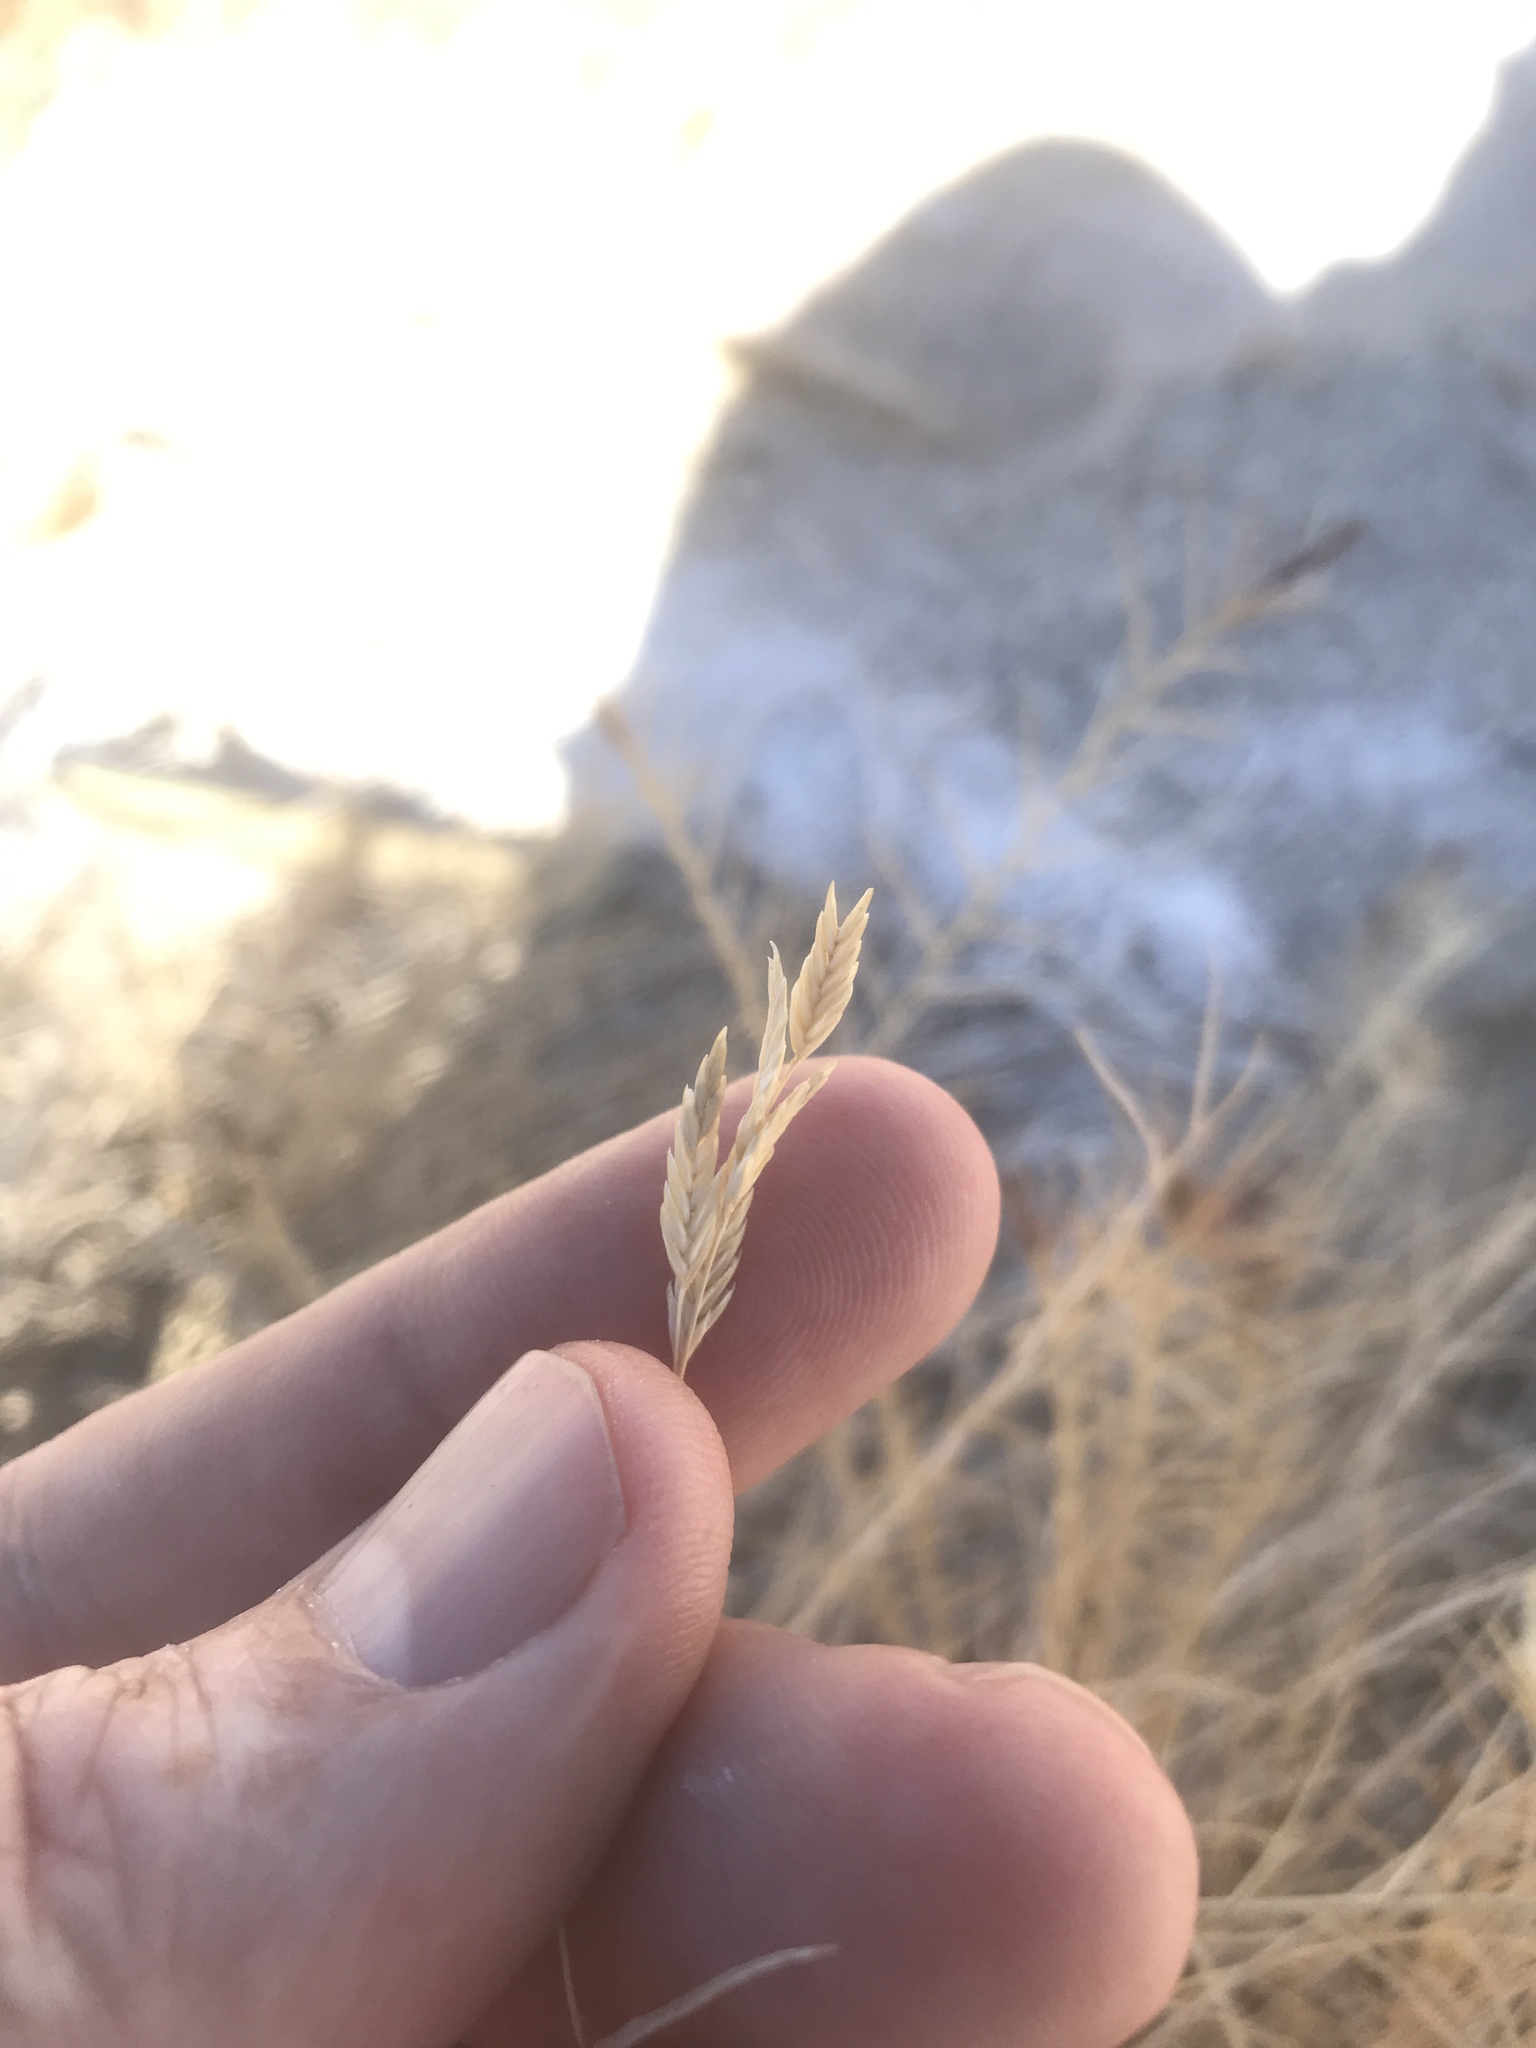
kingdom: Plantae
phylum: Tracheophyta
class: Liliopsida
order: Poales
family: Poaceae
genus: Distichlis
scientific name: Distichlis spicata
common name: Saltgrass
